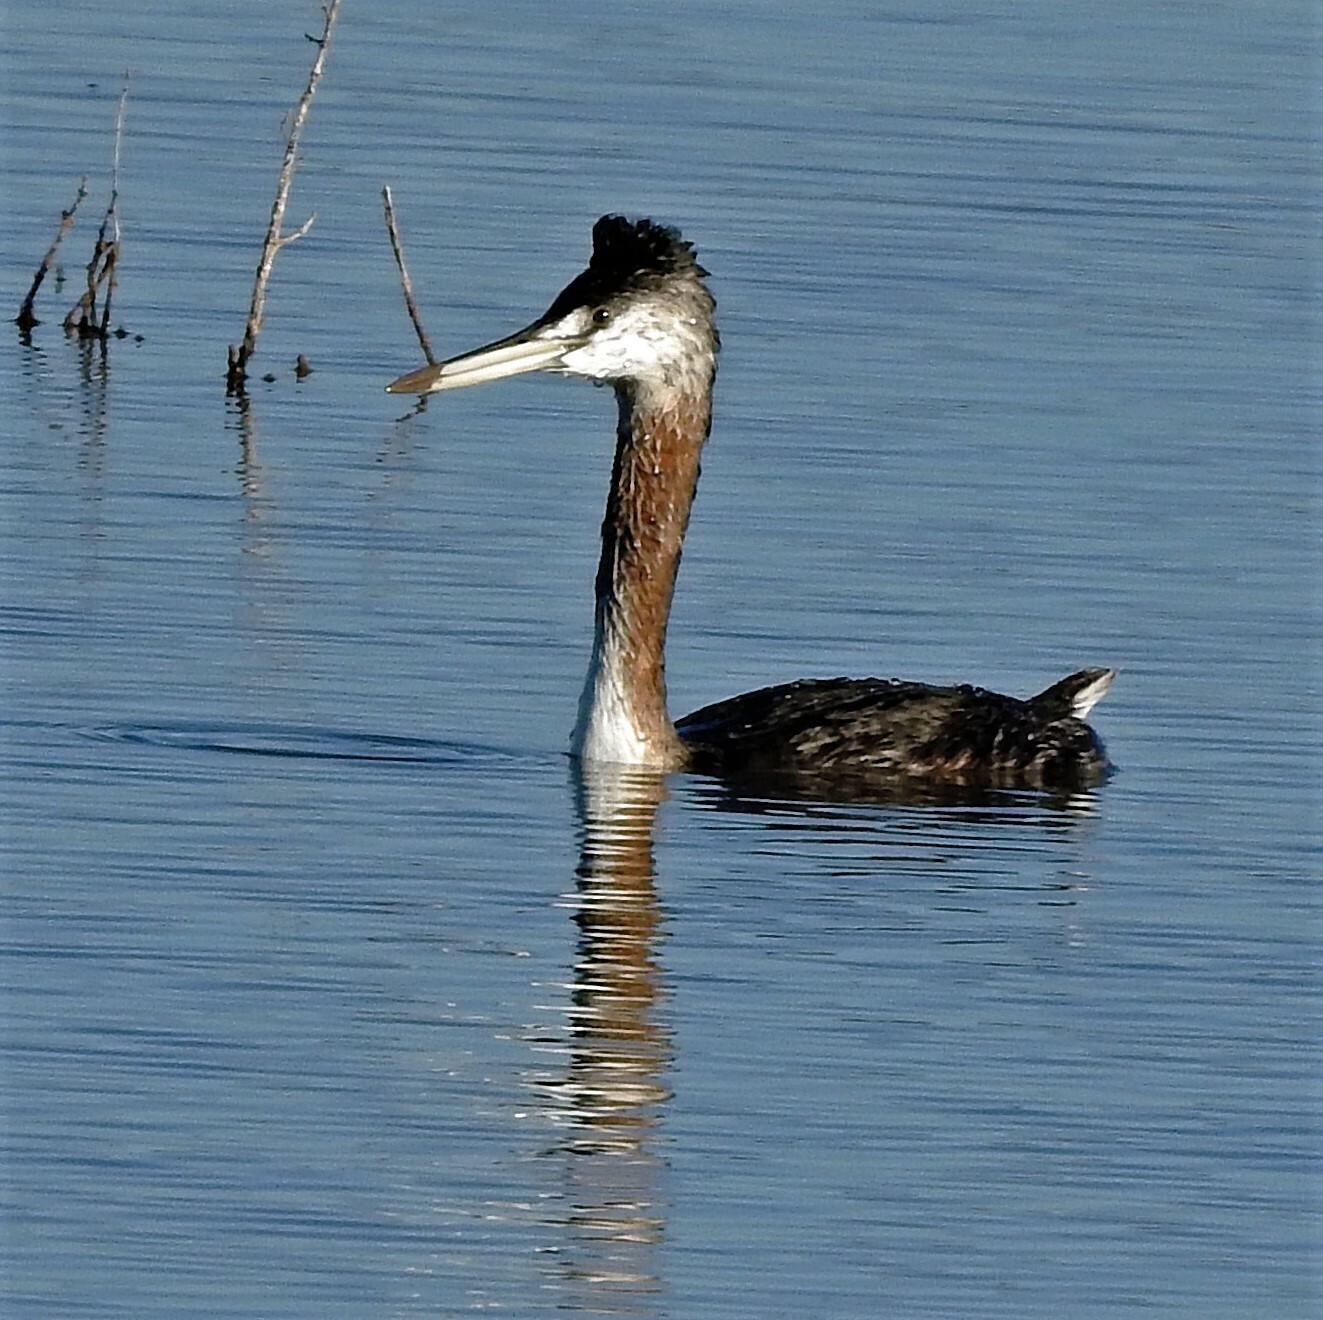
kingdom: Animalia
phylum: Chordata
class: Aves
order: Podicipediformes
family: Podicipedidae
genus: Podiceps
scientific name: Podiceps major
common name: Great grebe
